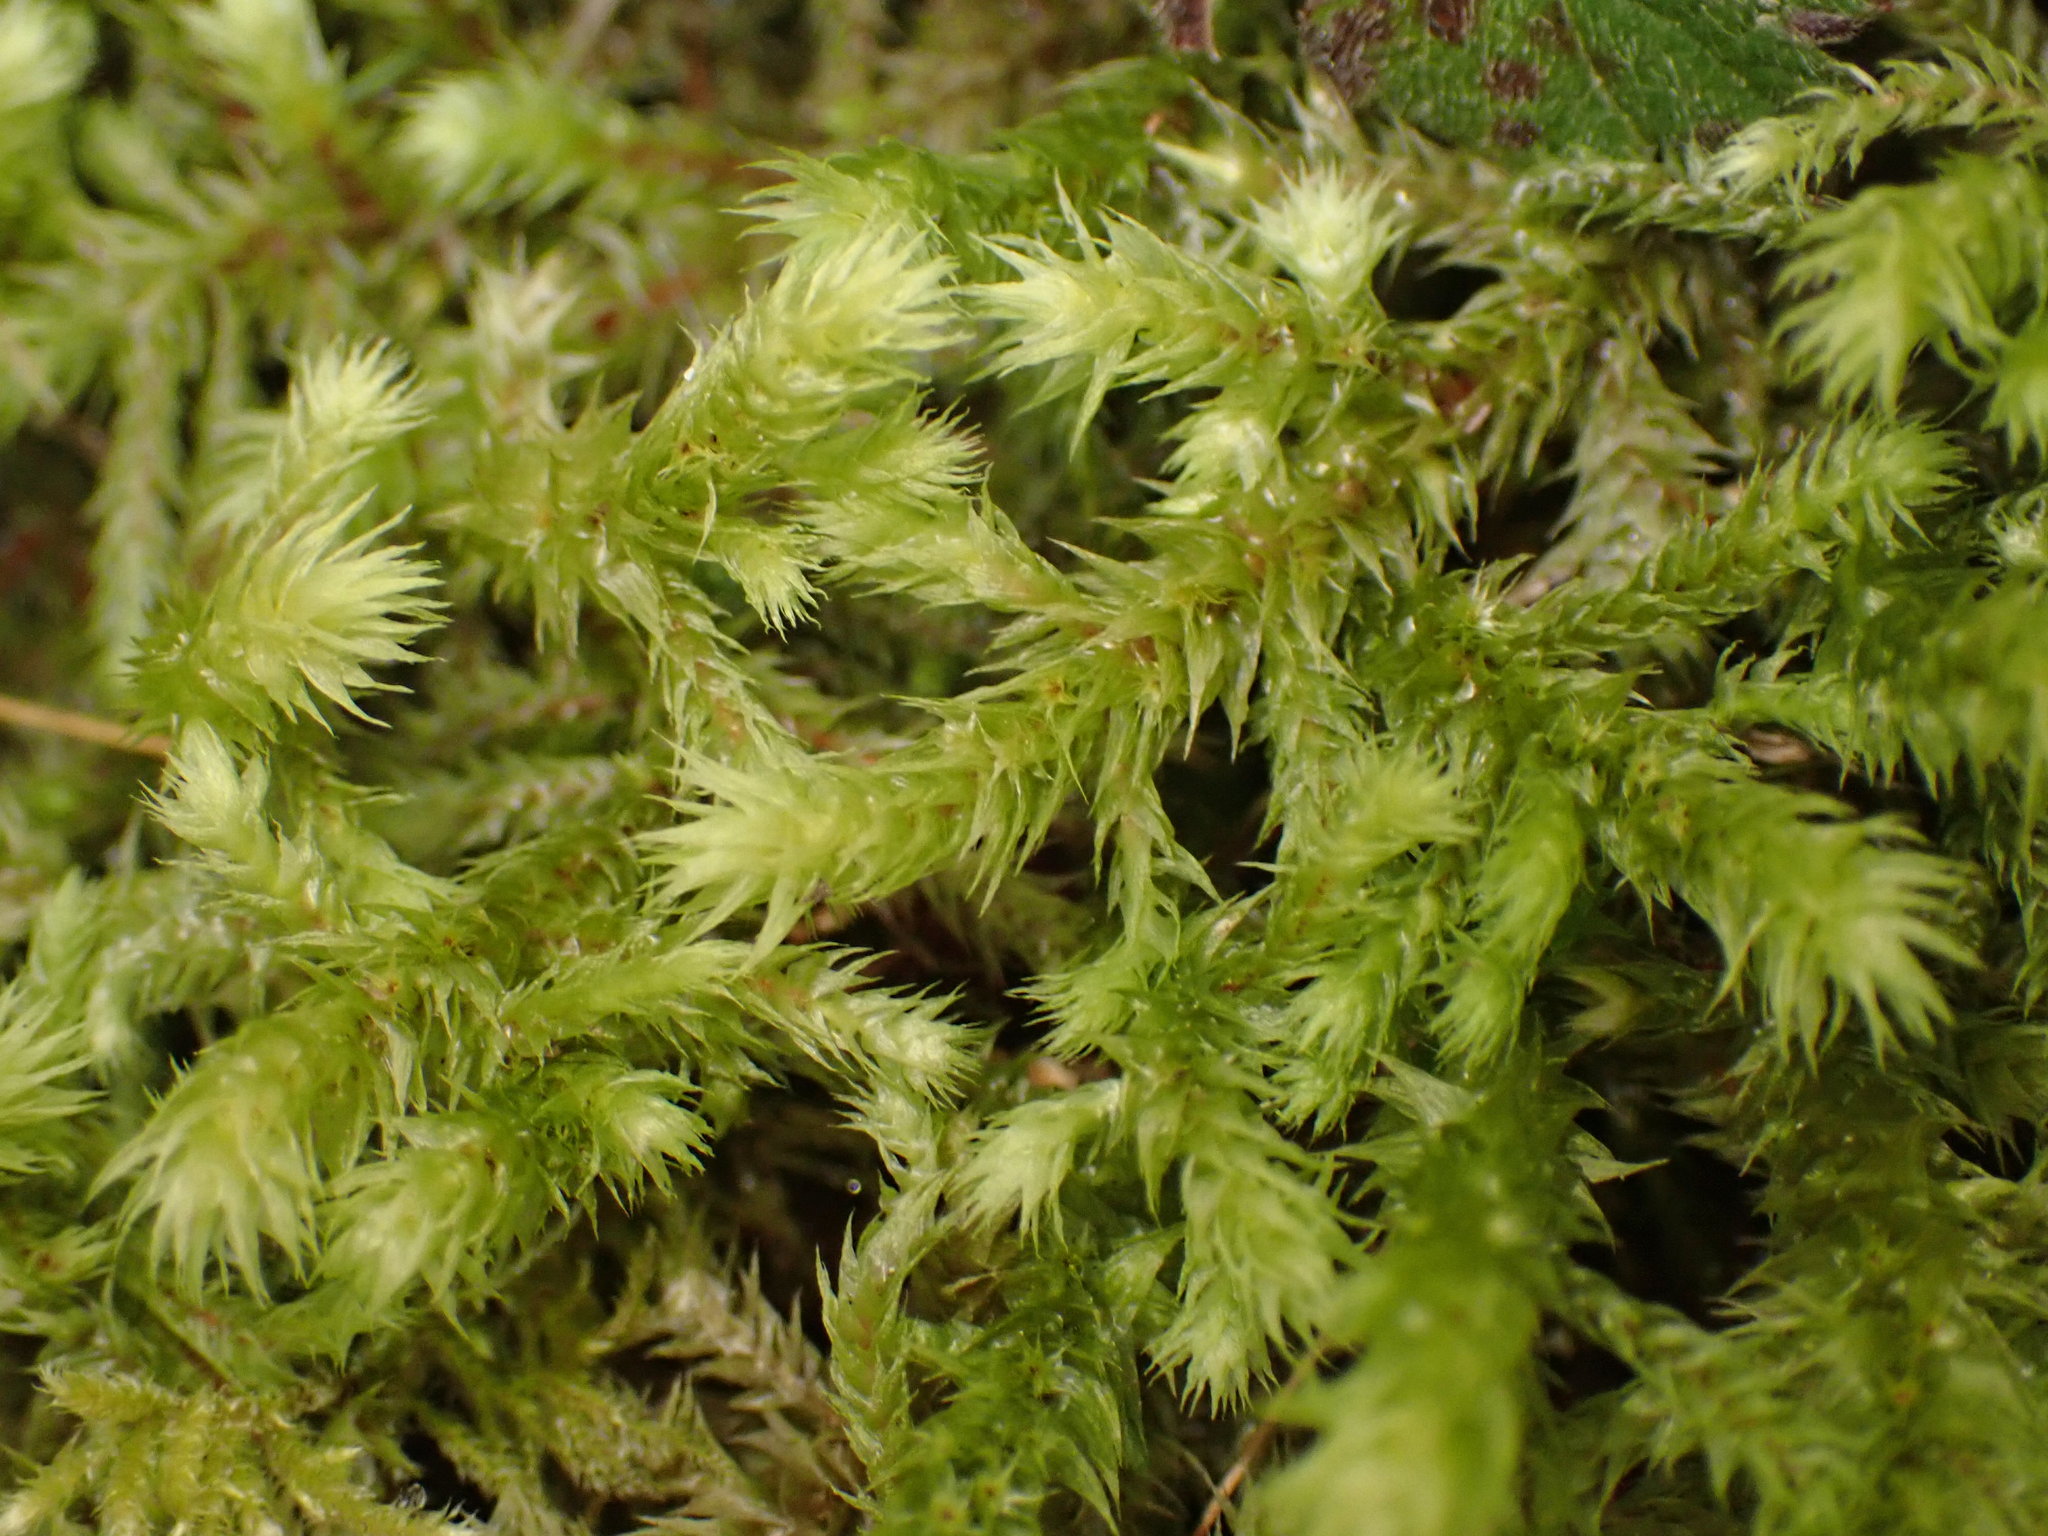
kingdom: Plantae
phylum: Bryophyta
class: Bryopsida
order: Hypnales
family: Hylocomiaceae
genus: Hylocomiadelphus
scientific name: Hylocomiadelphus triquetrus
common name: Rough goose neck moss
